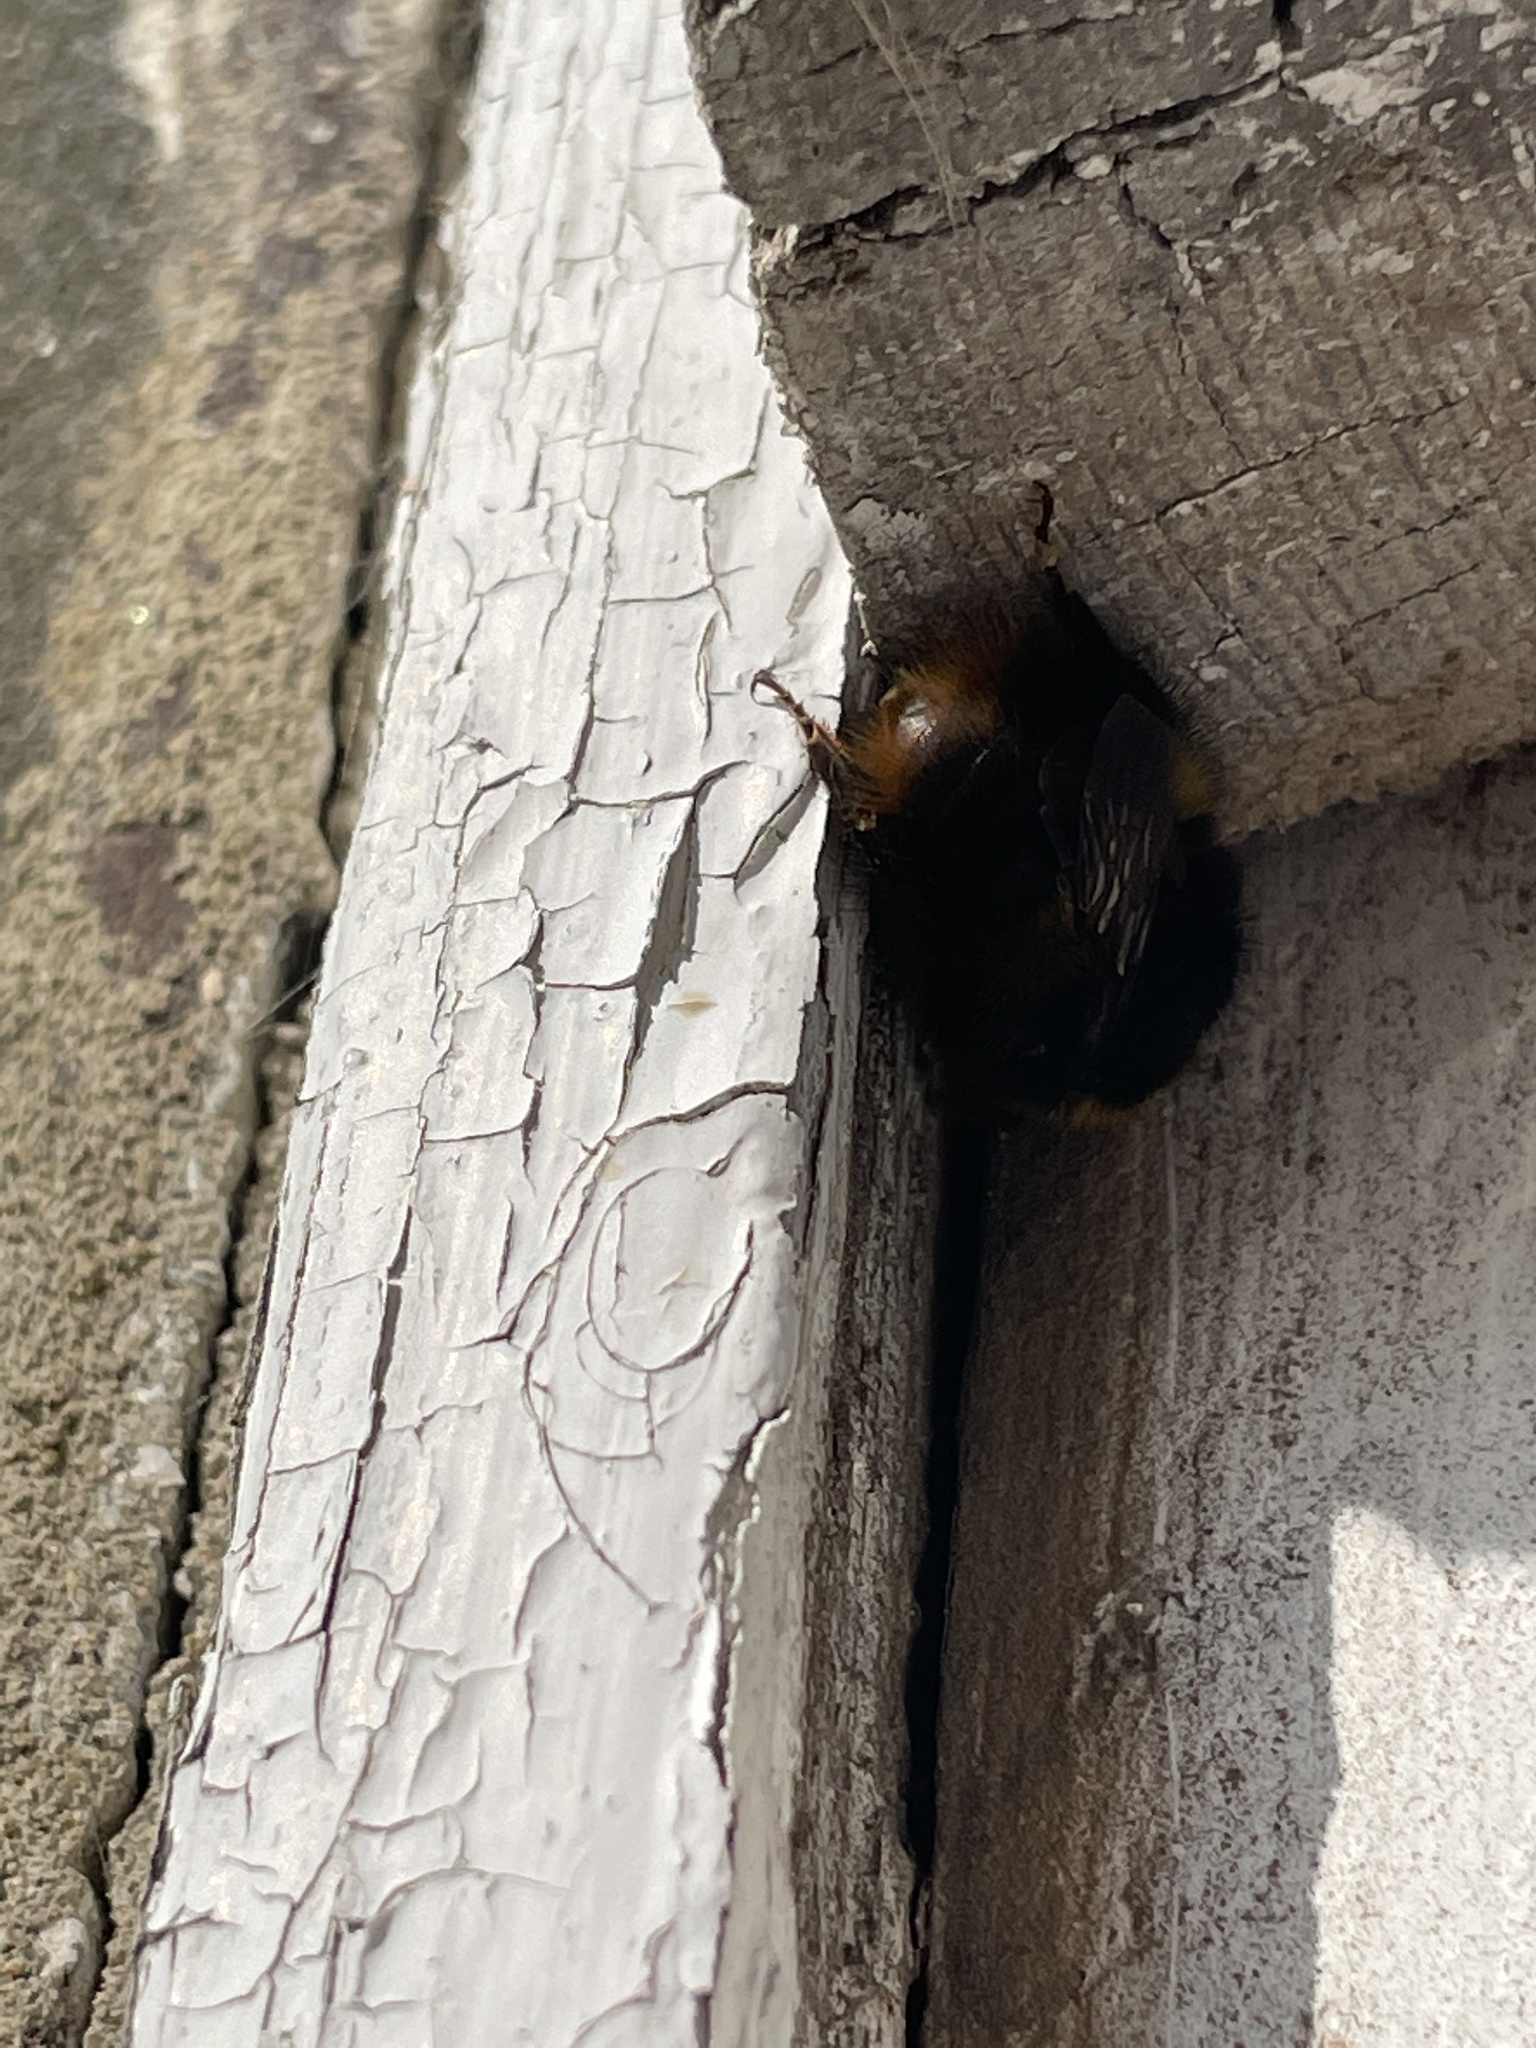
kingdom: Animalia
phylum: Arthropoda
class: Insecta
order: Hymenoptera
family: Apidae
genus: Bombus
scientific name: Bombus pratorum
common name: Early humble-bee
